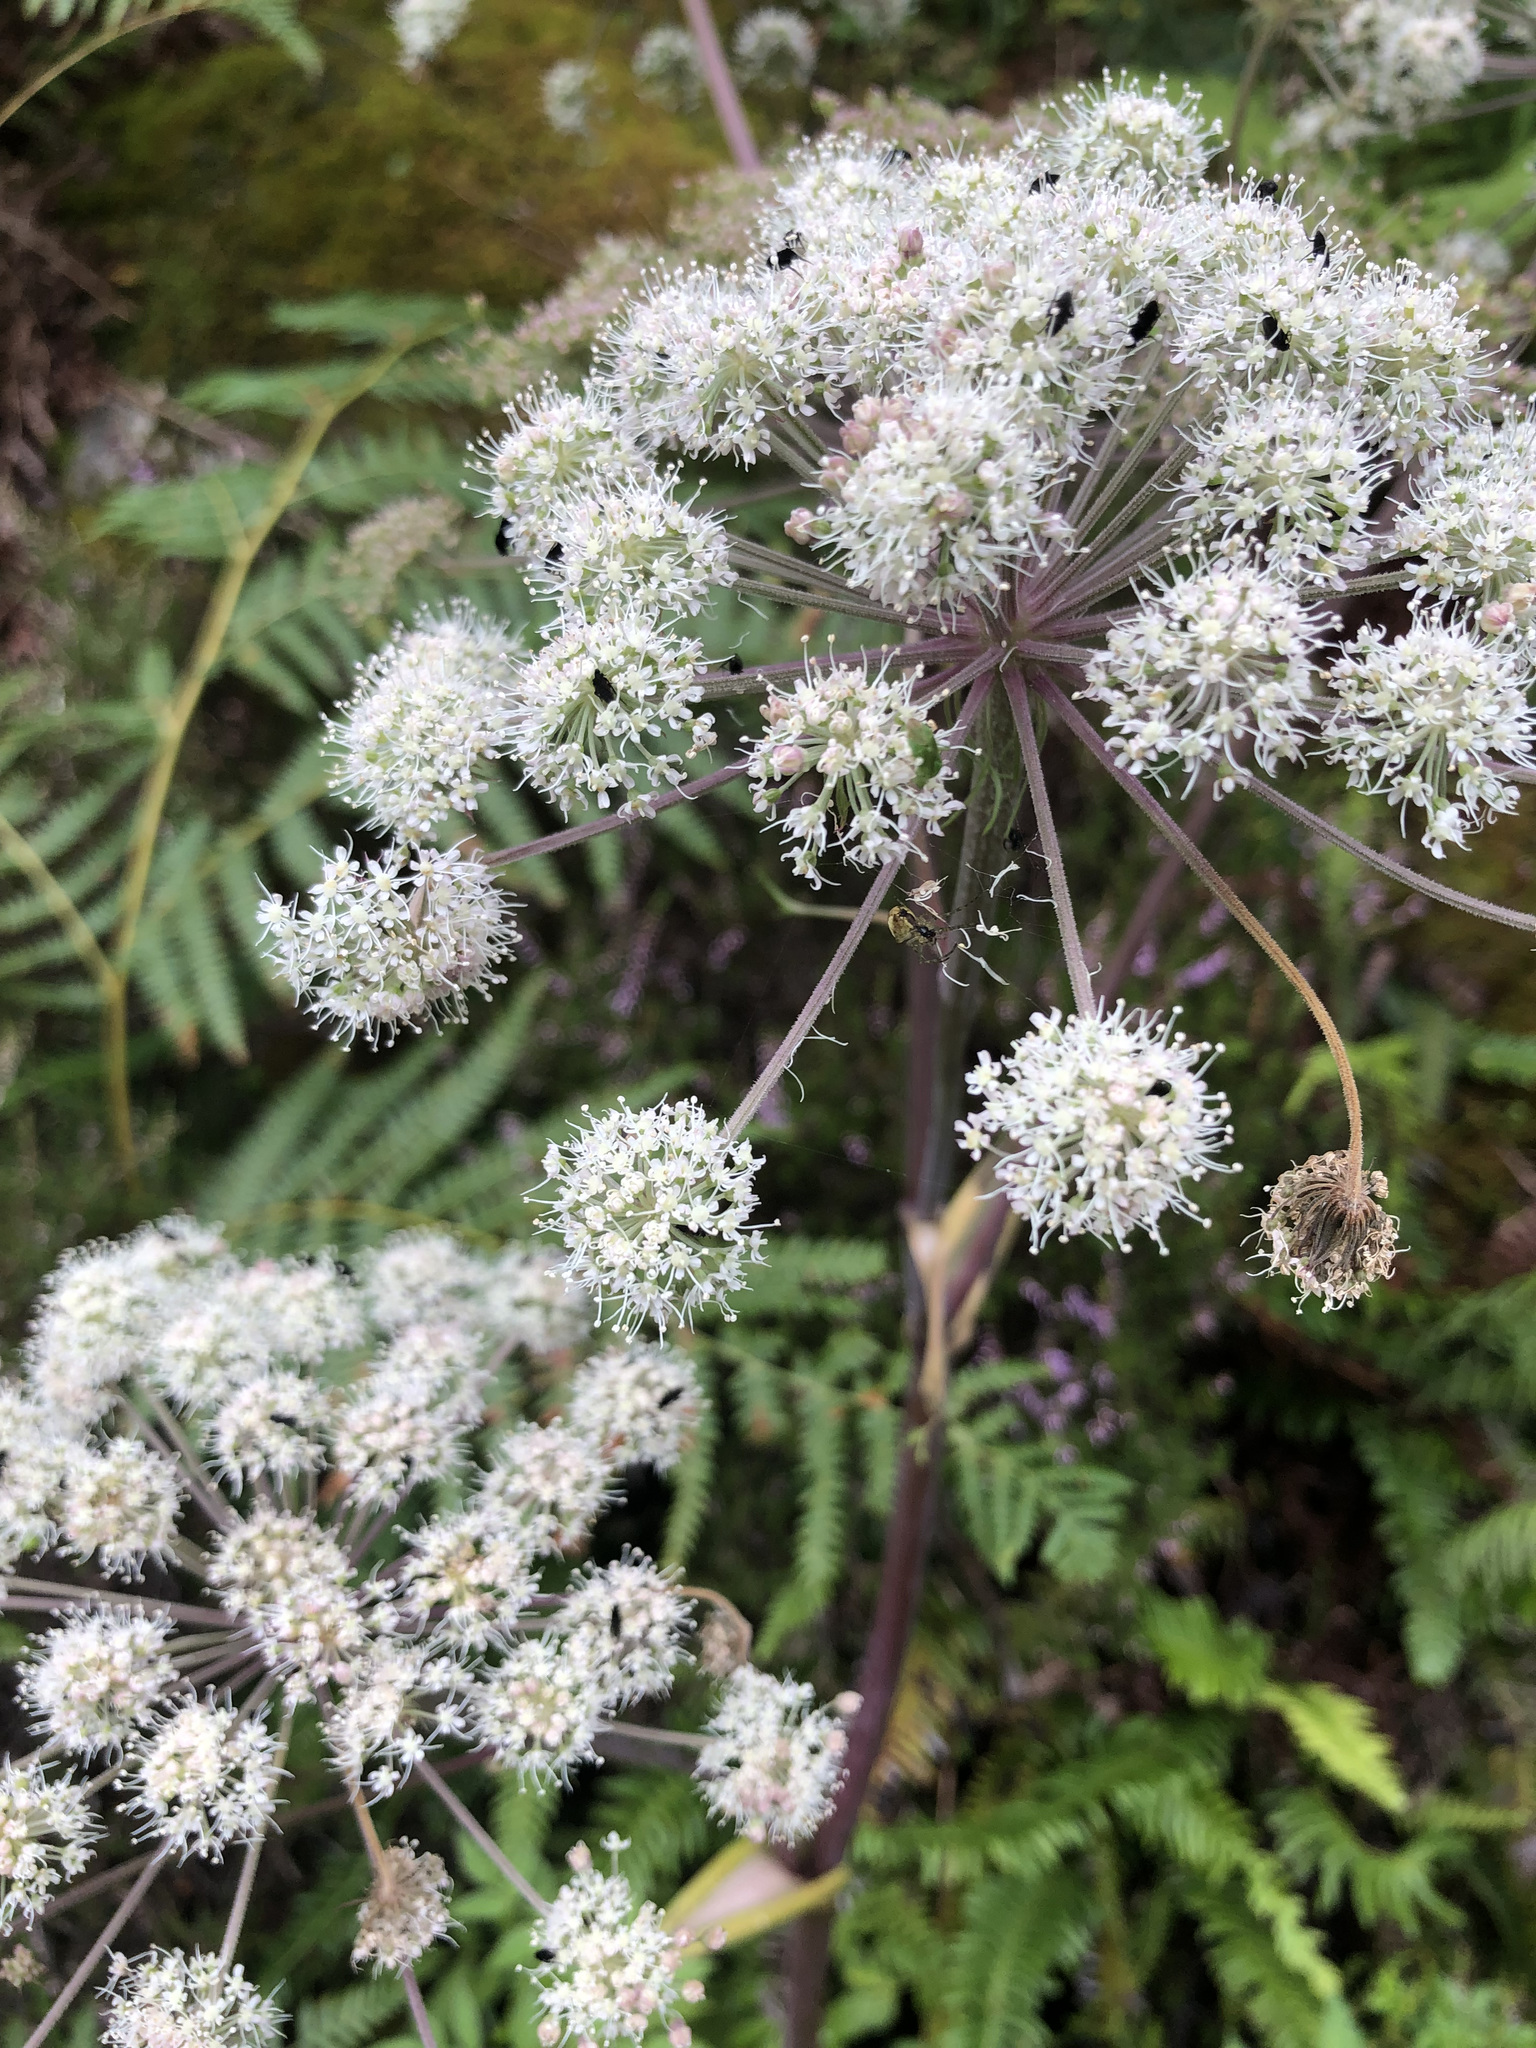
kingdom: Plantae
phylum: Tracheophyta
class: Magnoliopsida
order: Apiales
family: Apiaceae
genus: Angelica
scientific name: Angelica sylvestris
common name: Wild angelica
